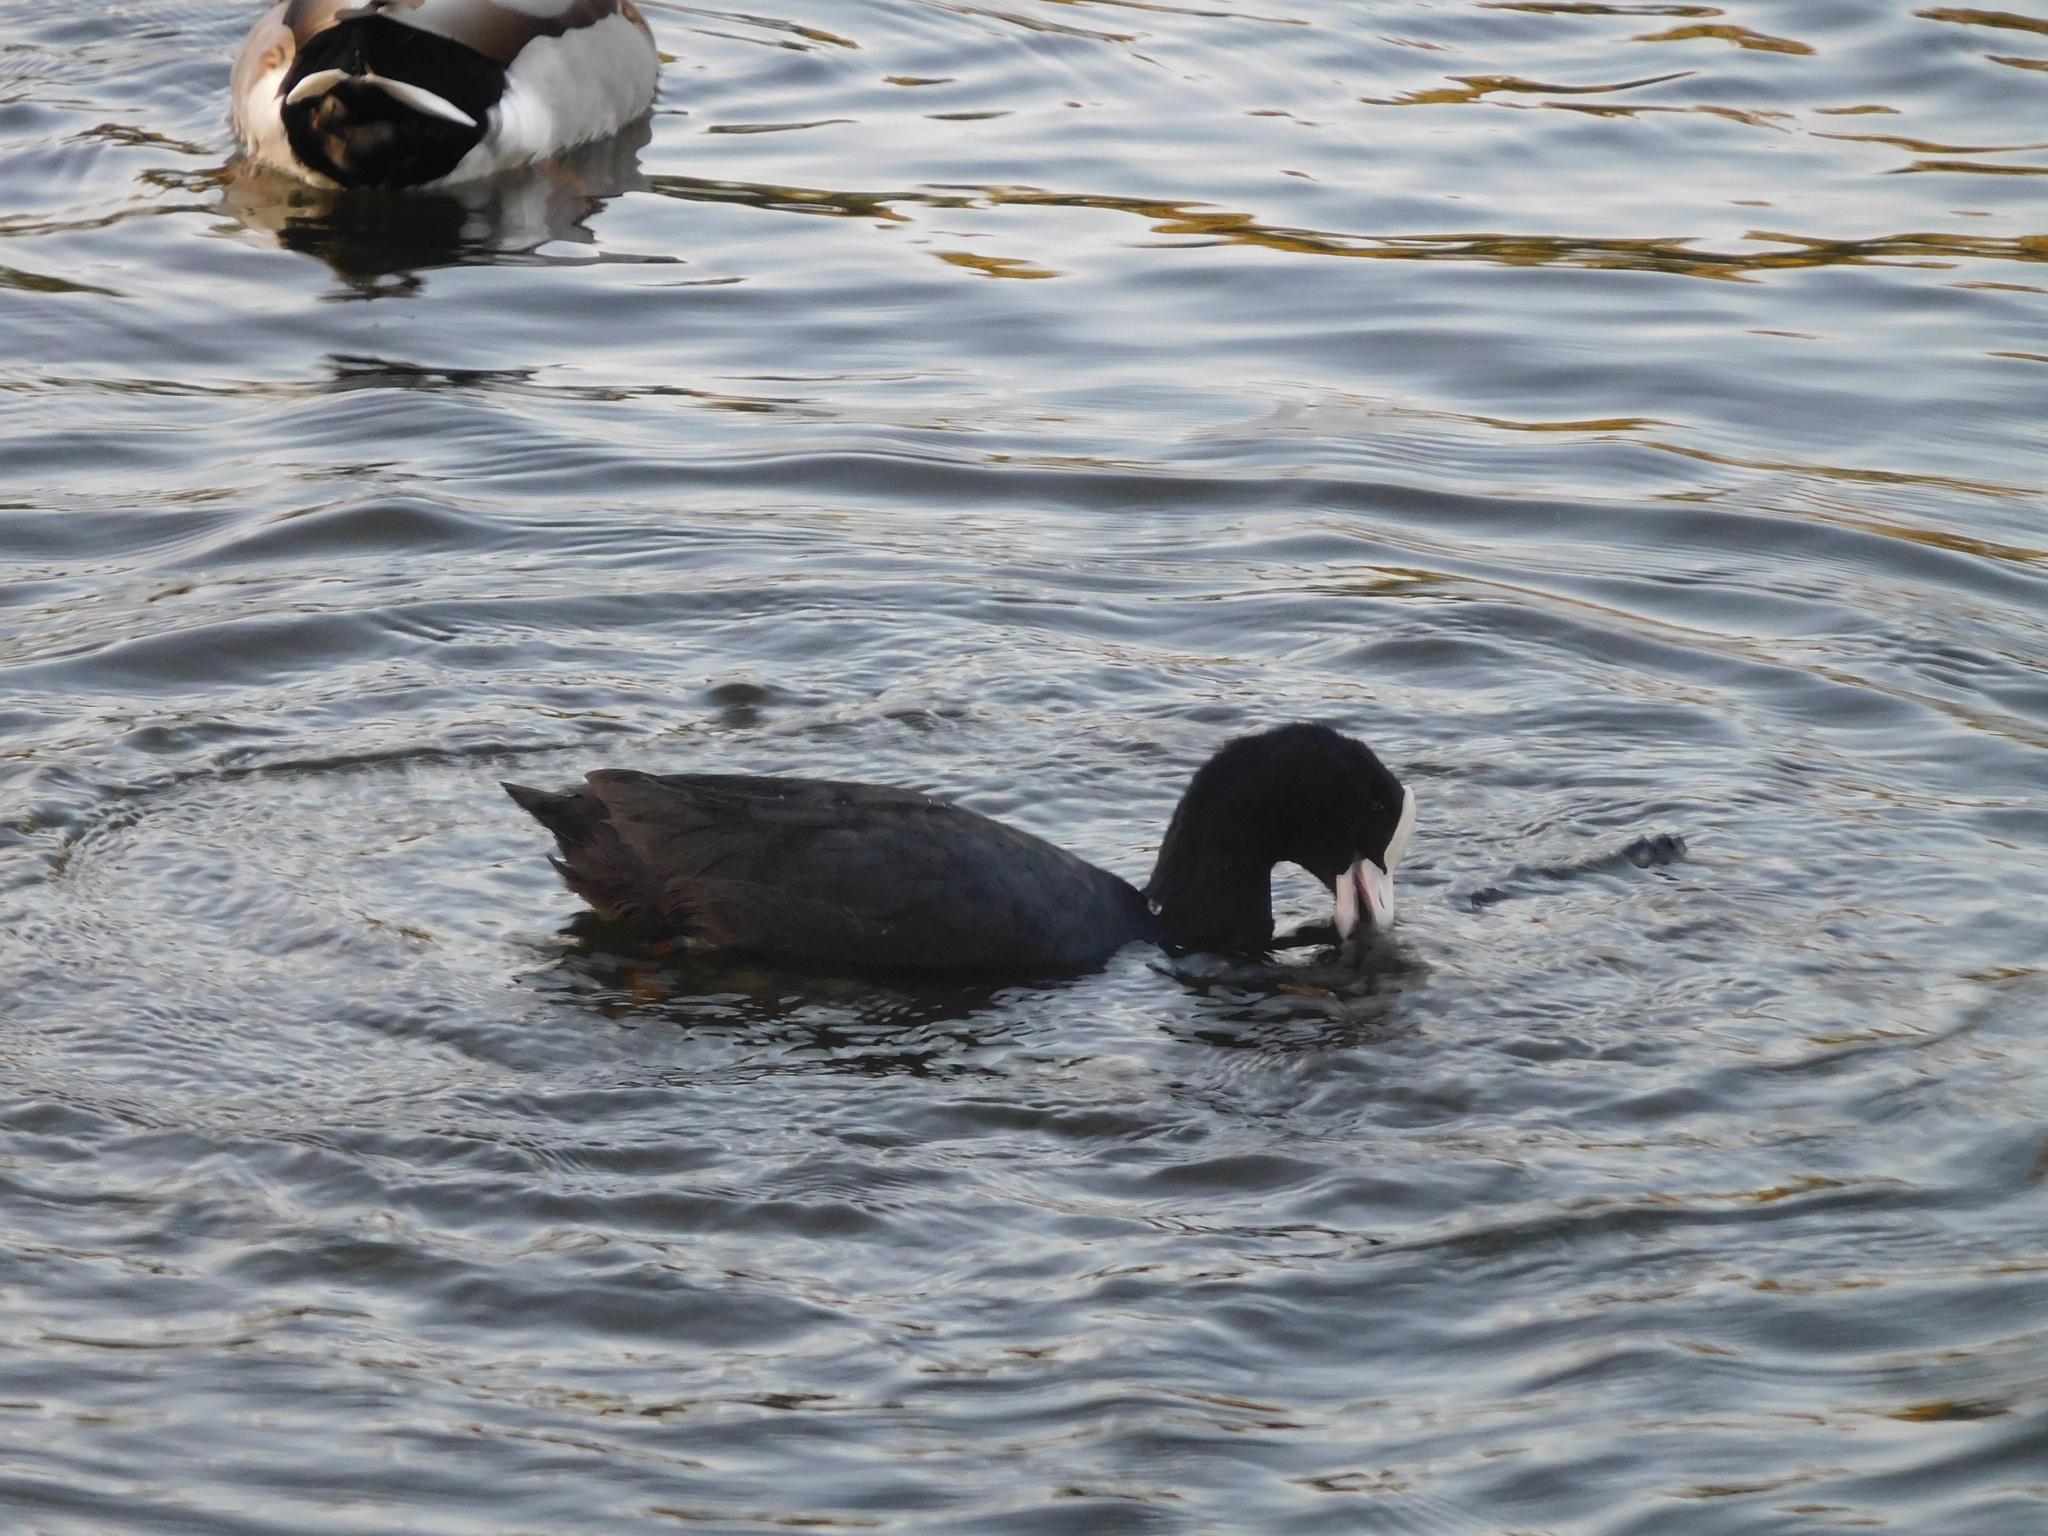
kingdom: Animalia
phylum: Chordata
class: Aves
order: Gruiformes
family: Rallidae
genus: Fulica
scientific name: Fulica atra
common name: Eurasian coot
